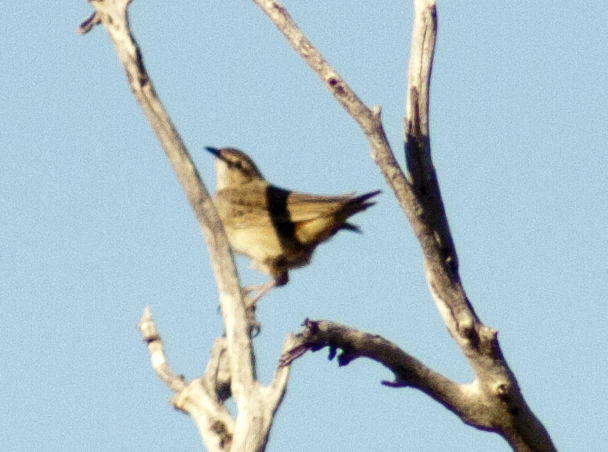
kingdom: Animalia
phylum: Chordata
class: Aves
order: Passeriformes
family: Locustellidae
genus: Megalurus
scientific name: Megalurus mathewsi
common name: Rufous songlark
